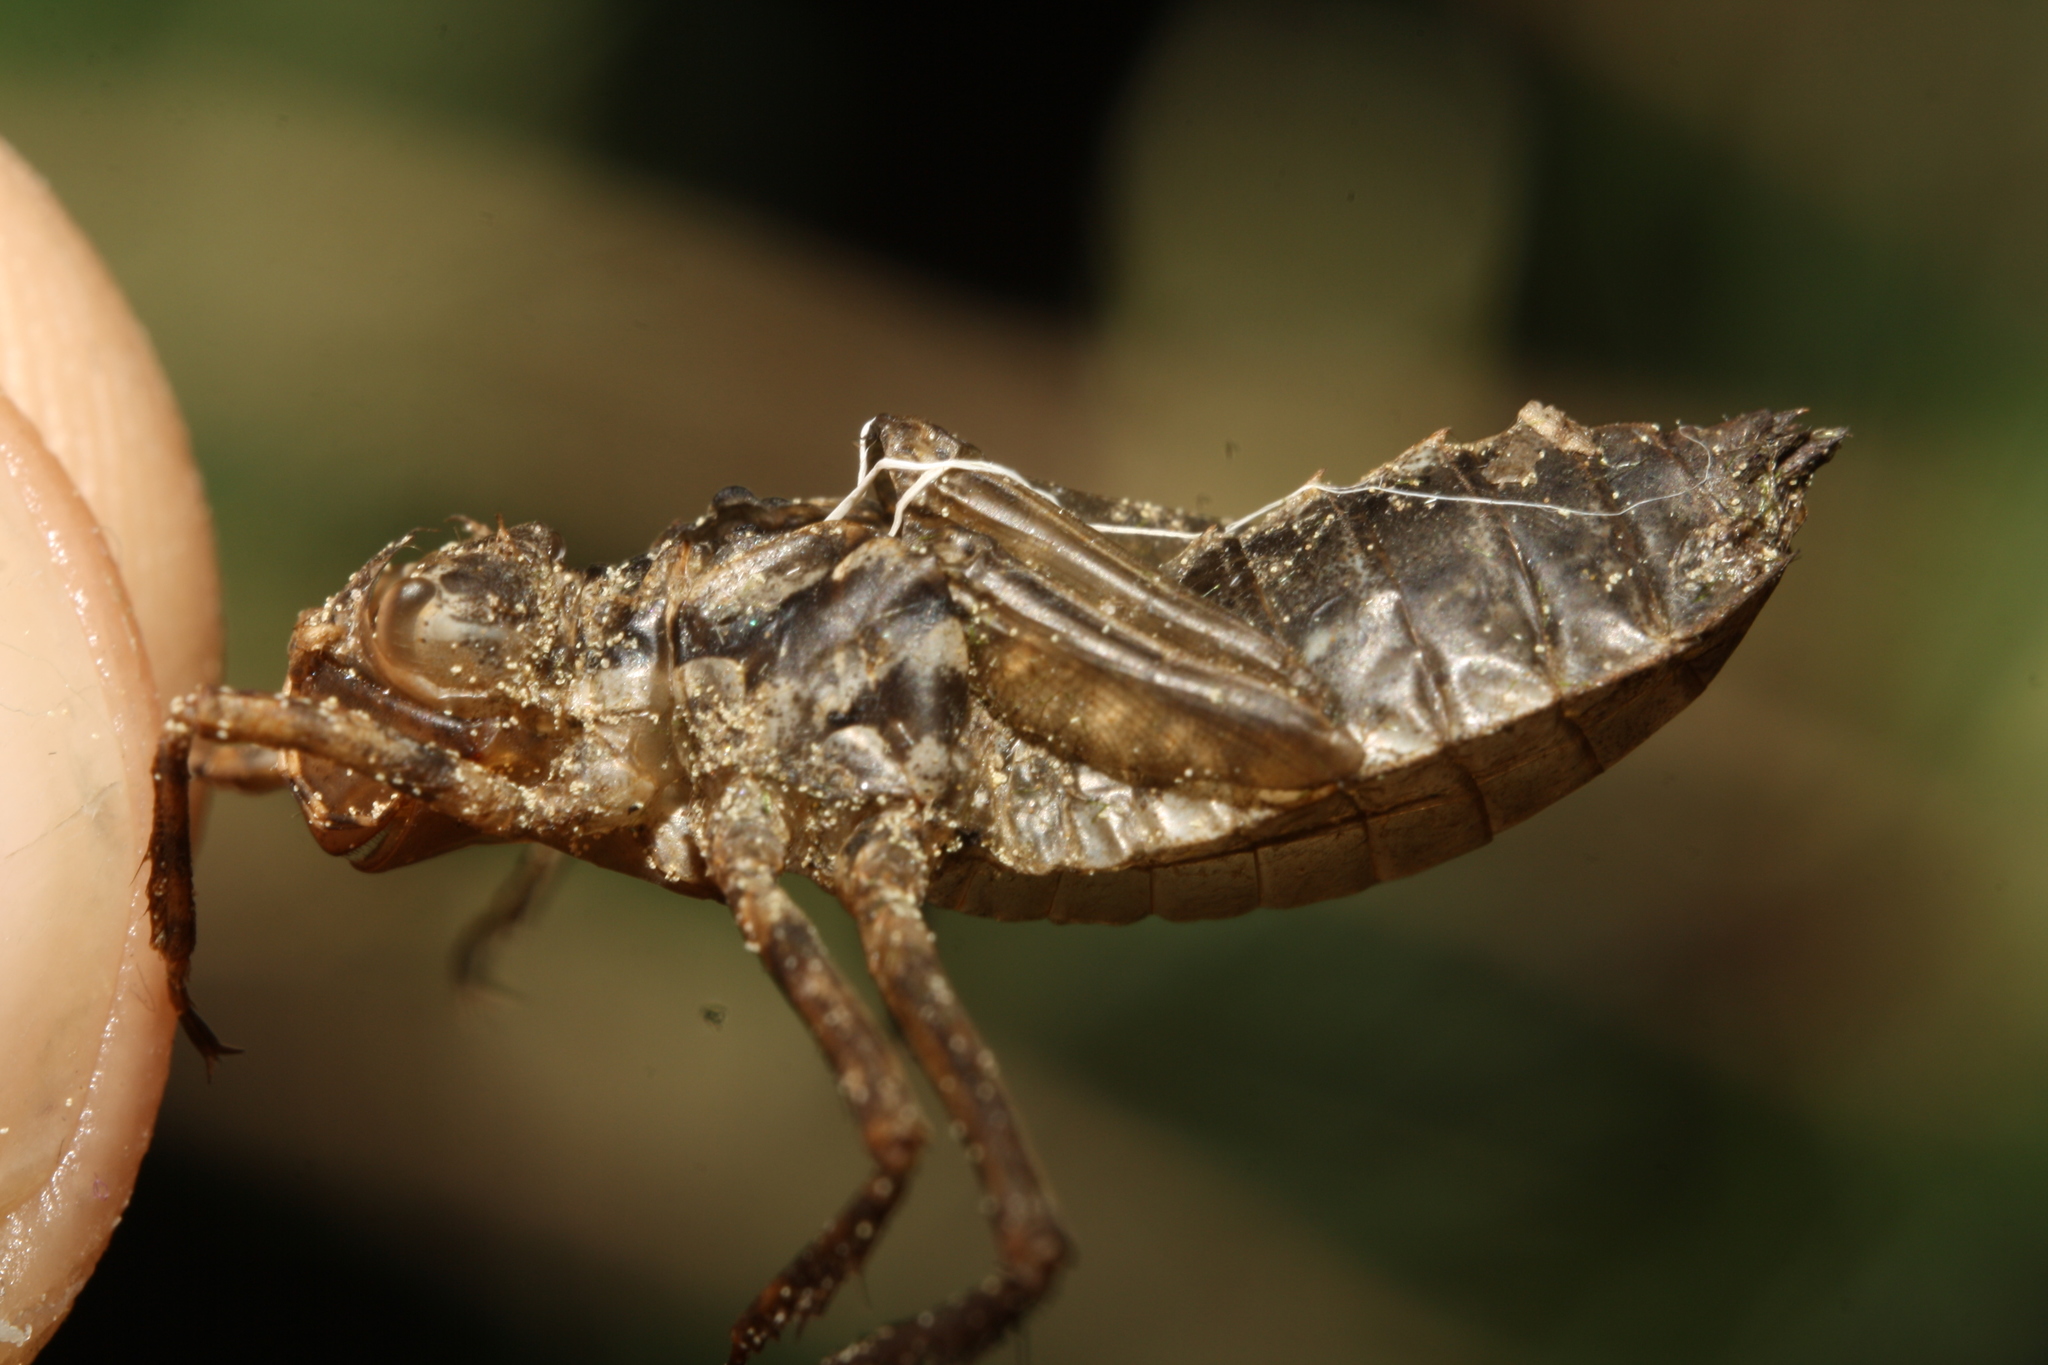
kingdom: Animalia
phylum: Arthropoda
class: Insecta
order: Odonata
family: Corduliidae
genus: Cordulia
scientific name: Cordulia aenea
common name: Downy emerald
